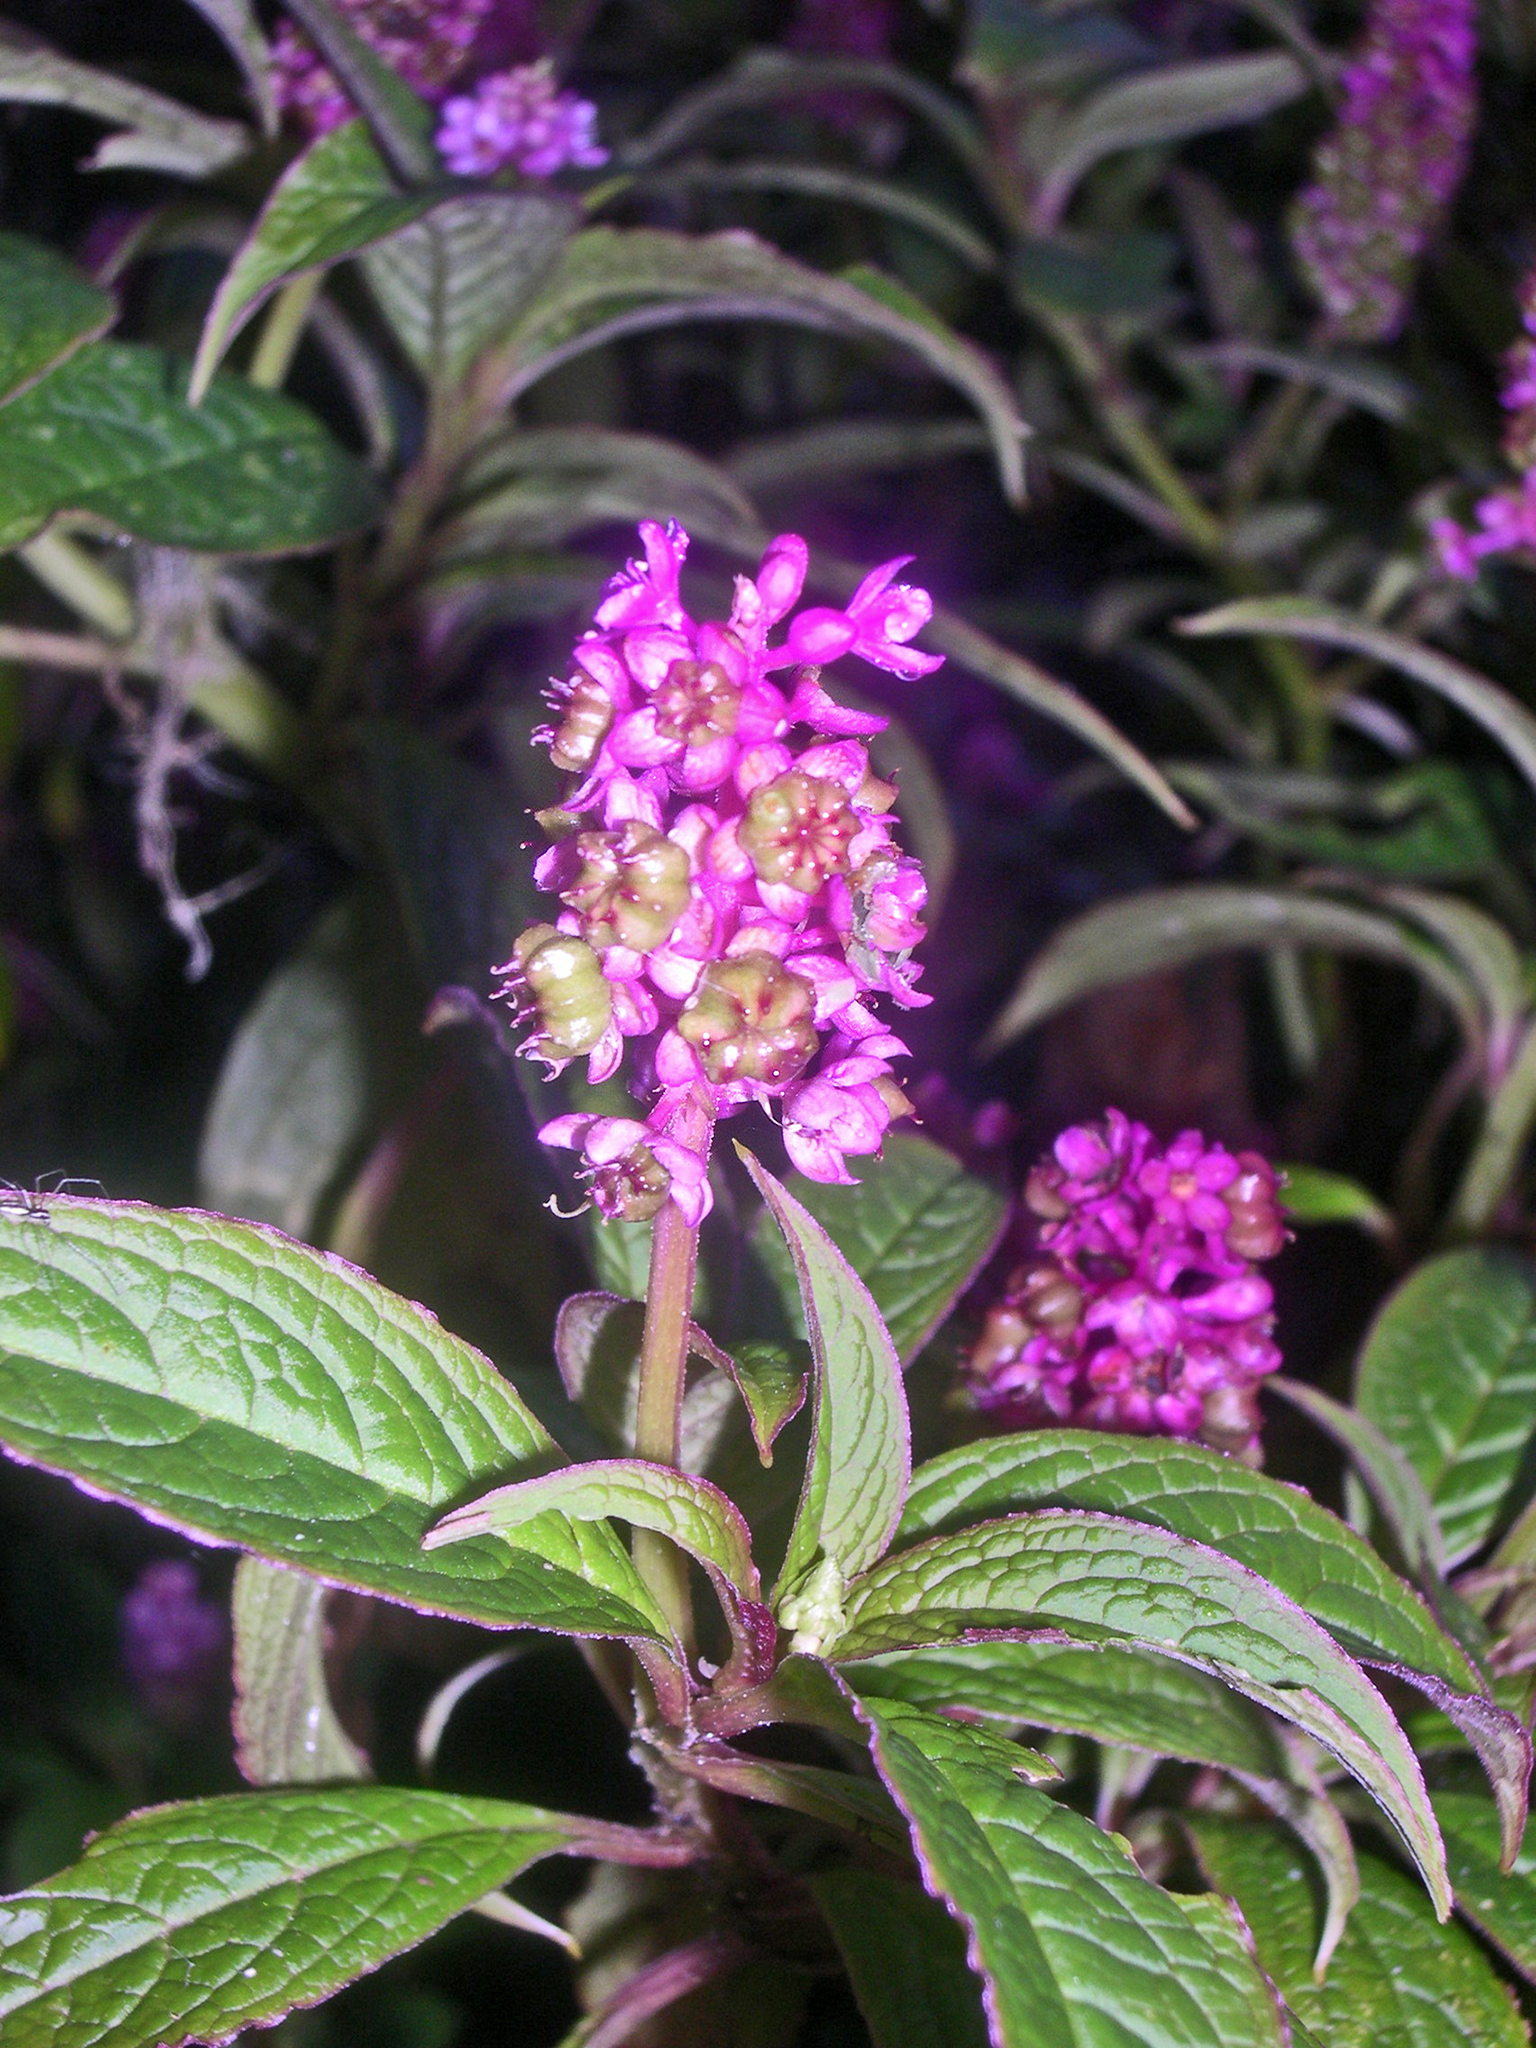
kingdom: Plantae
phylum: Tracheophyta
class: Magnoliopsida
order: Caryophyllales
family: Phytolaccaceae
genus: Phytolacca
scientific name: Phytolacca rugosa
